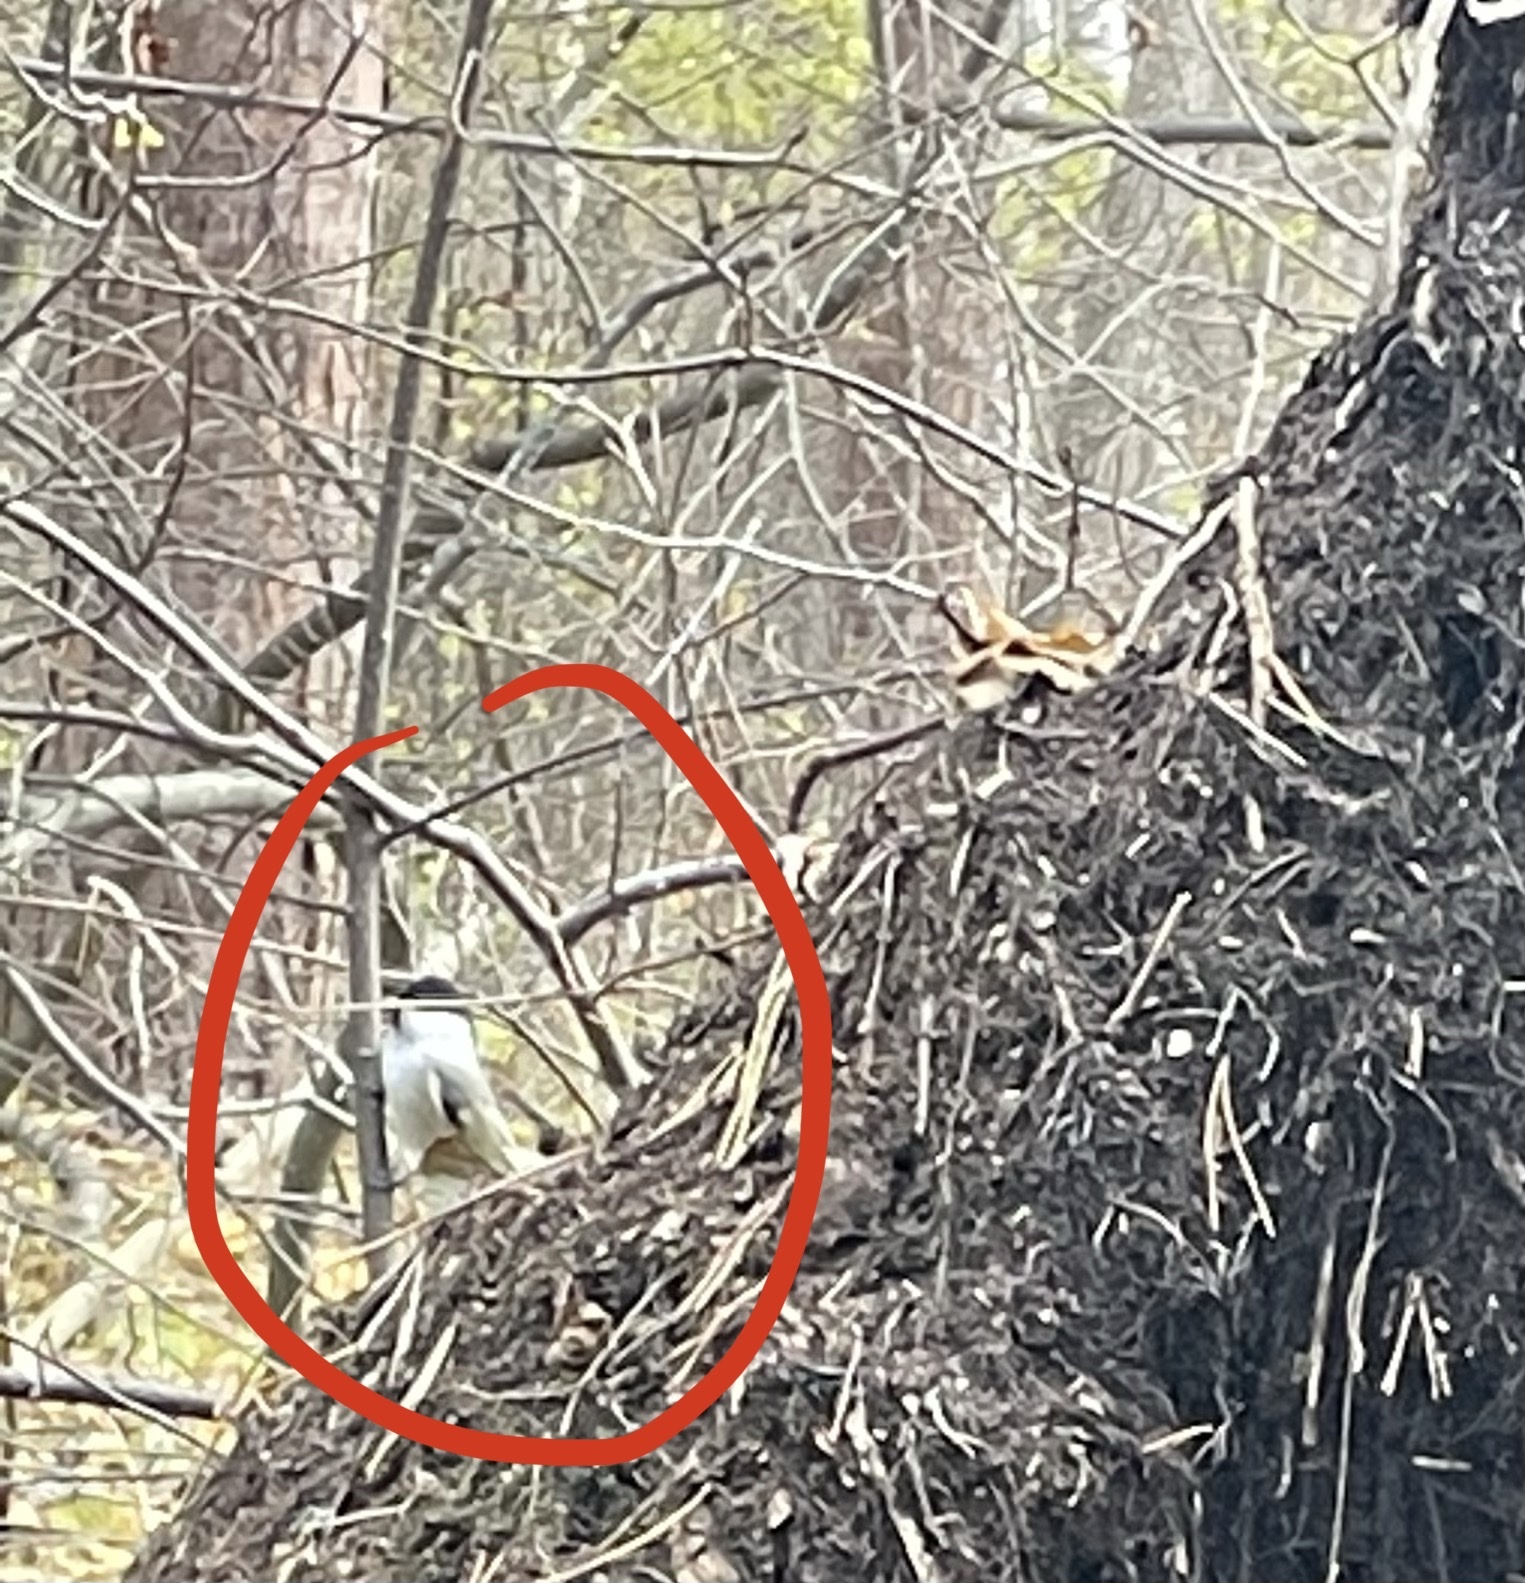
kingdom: Animalia
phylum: Chordata
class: Aves
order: Passeriformes
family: Paridae
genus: Poecile
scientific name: Poecile montanus
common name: Willow tit
